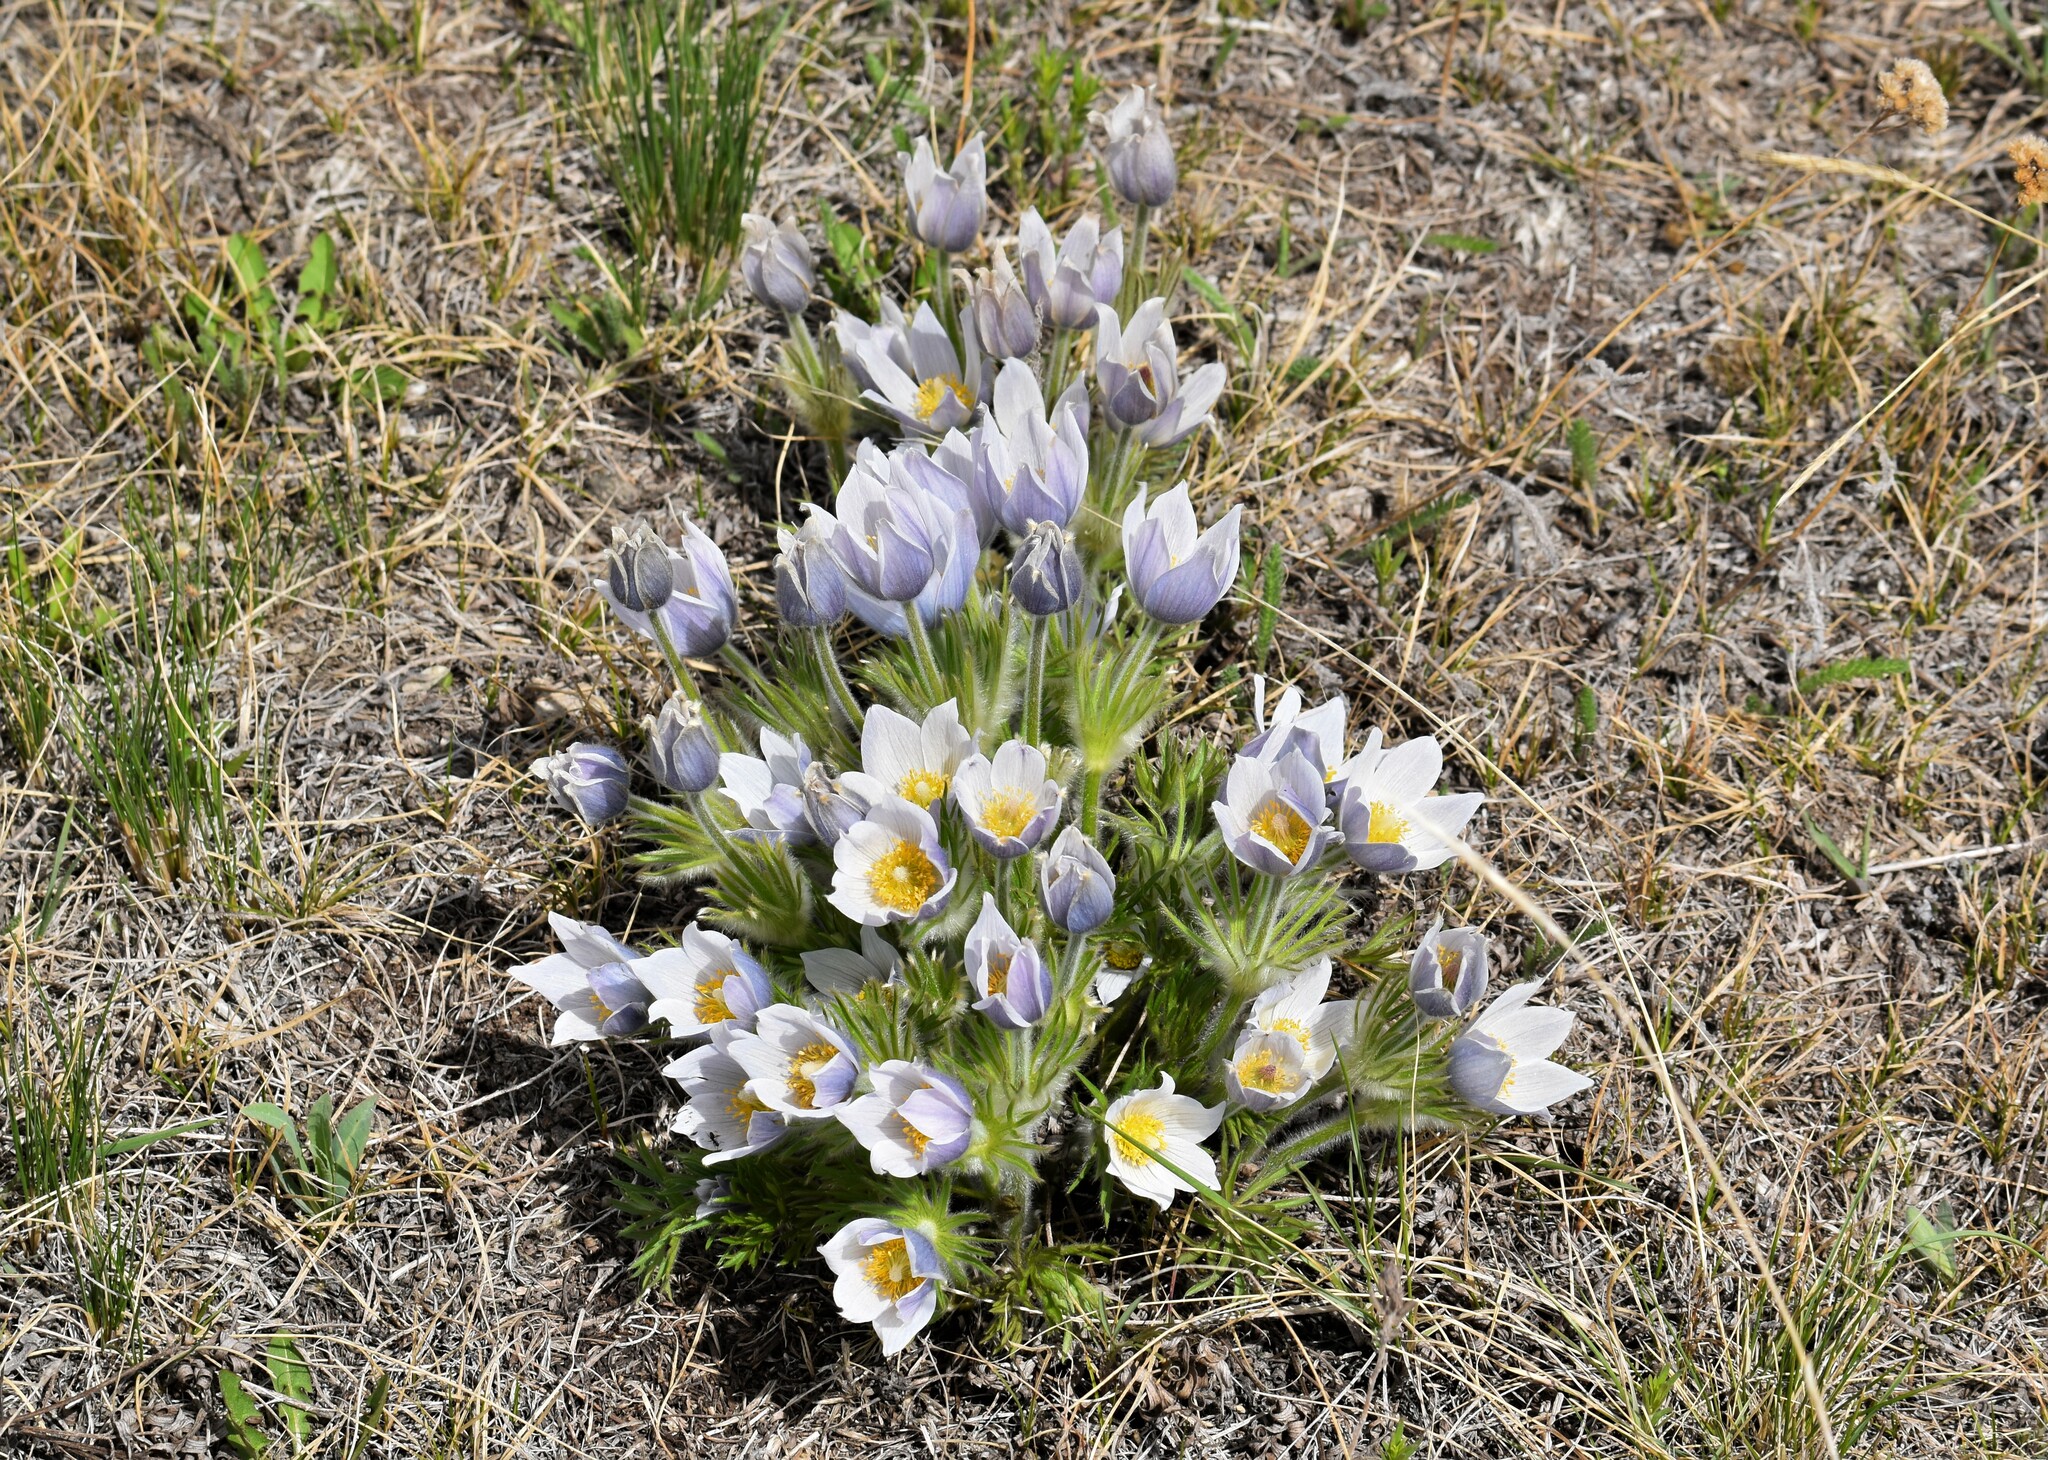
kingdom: Plantae
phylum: Tracheophyta
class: Magnoliopsida
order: Ranunculales
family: Ranunculaceae
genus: Pulsatilla
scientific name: Pulsatilla nuttalliana
